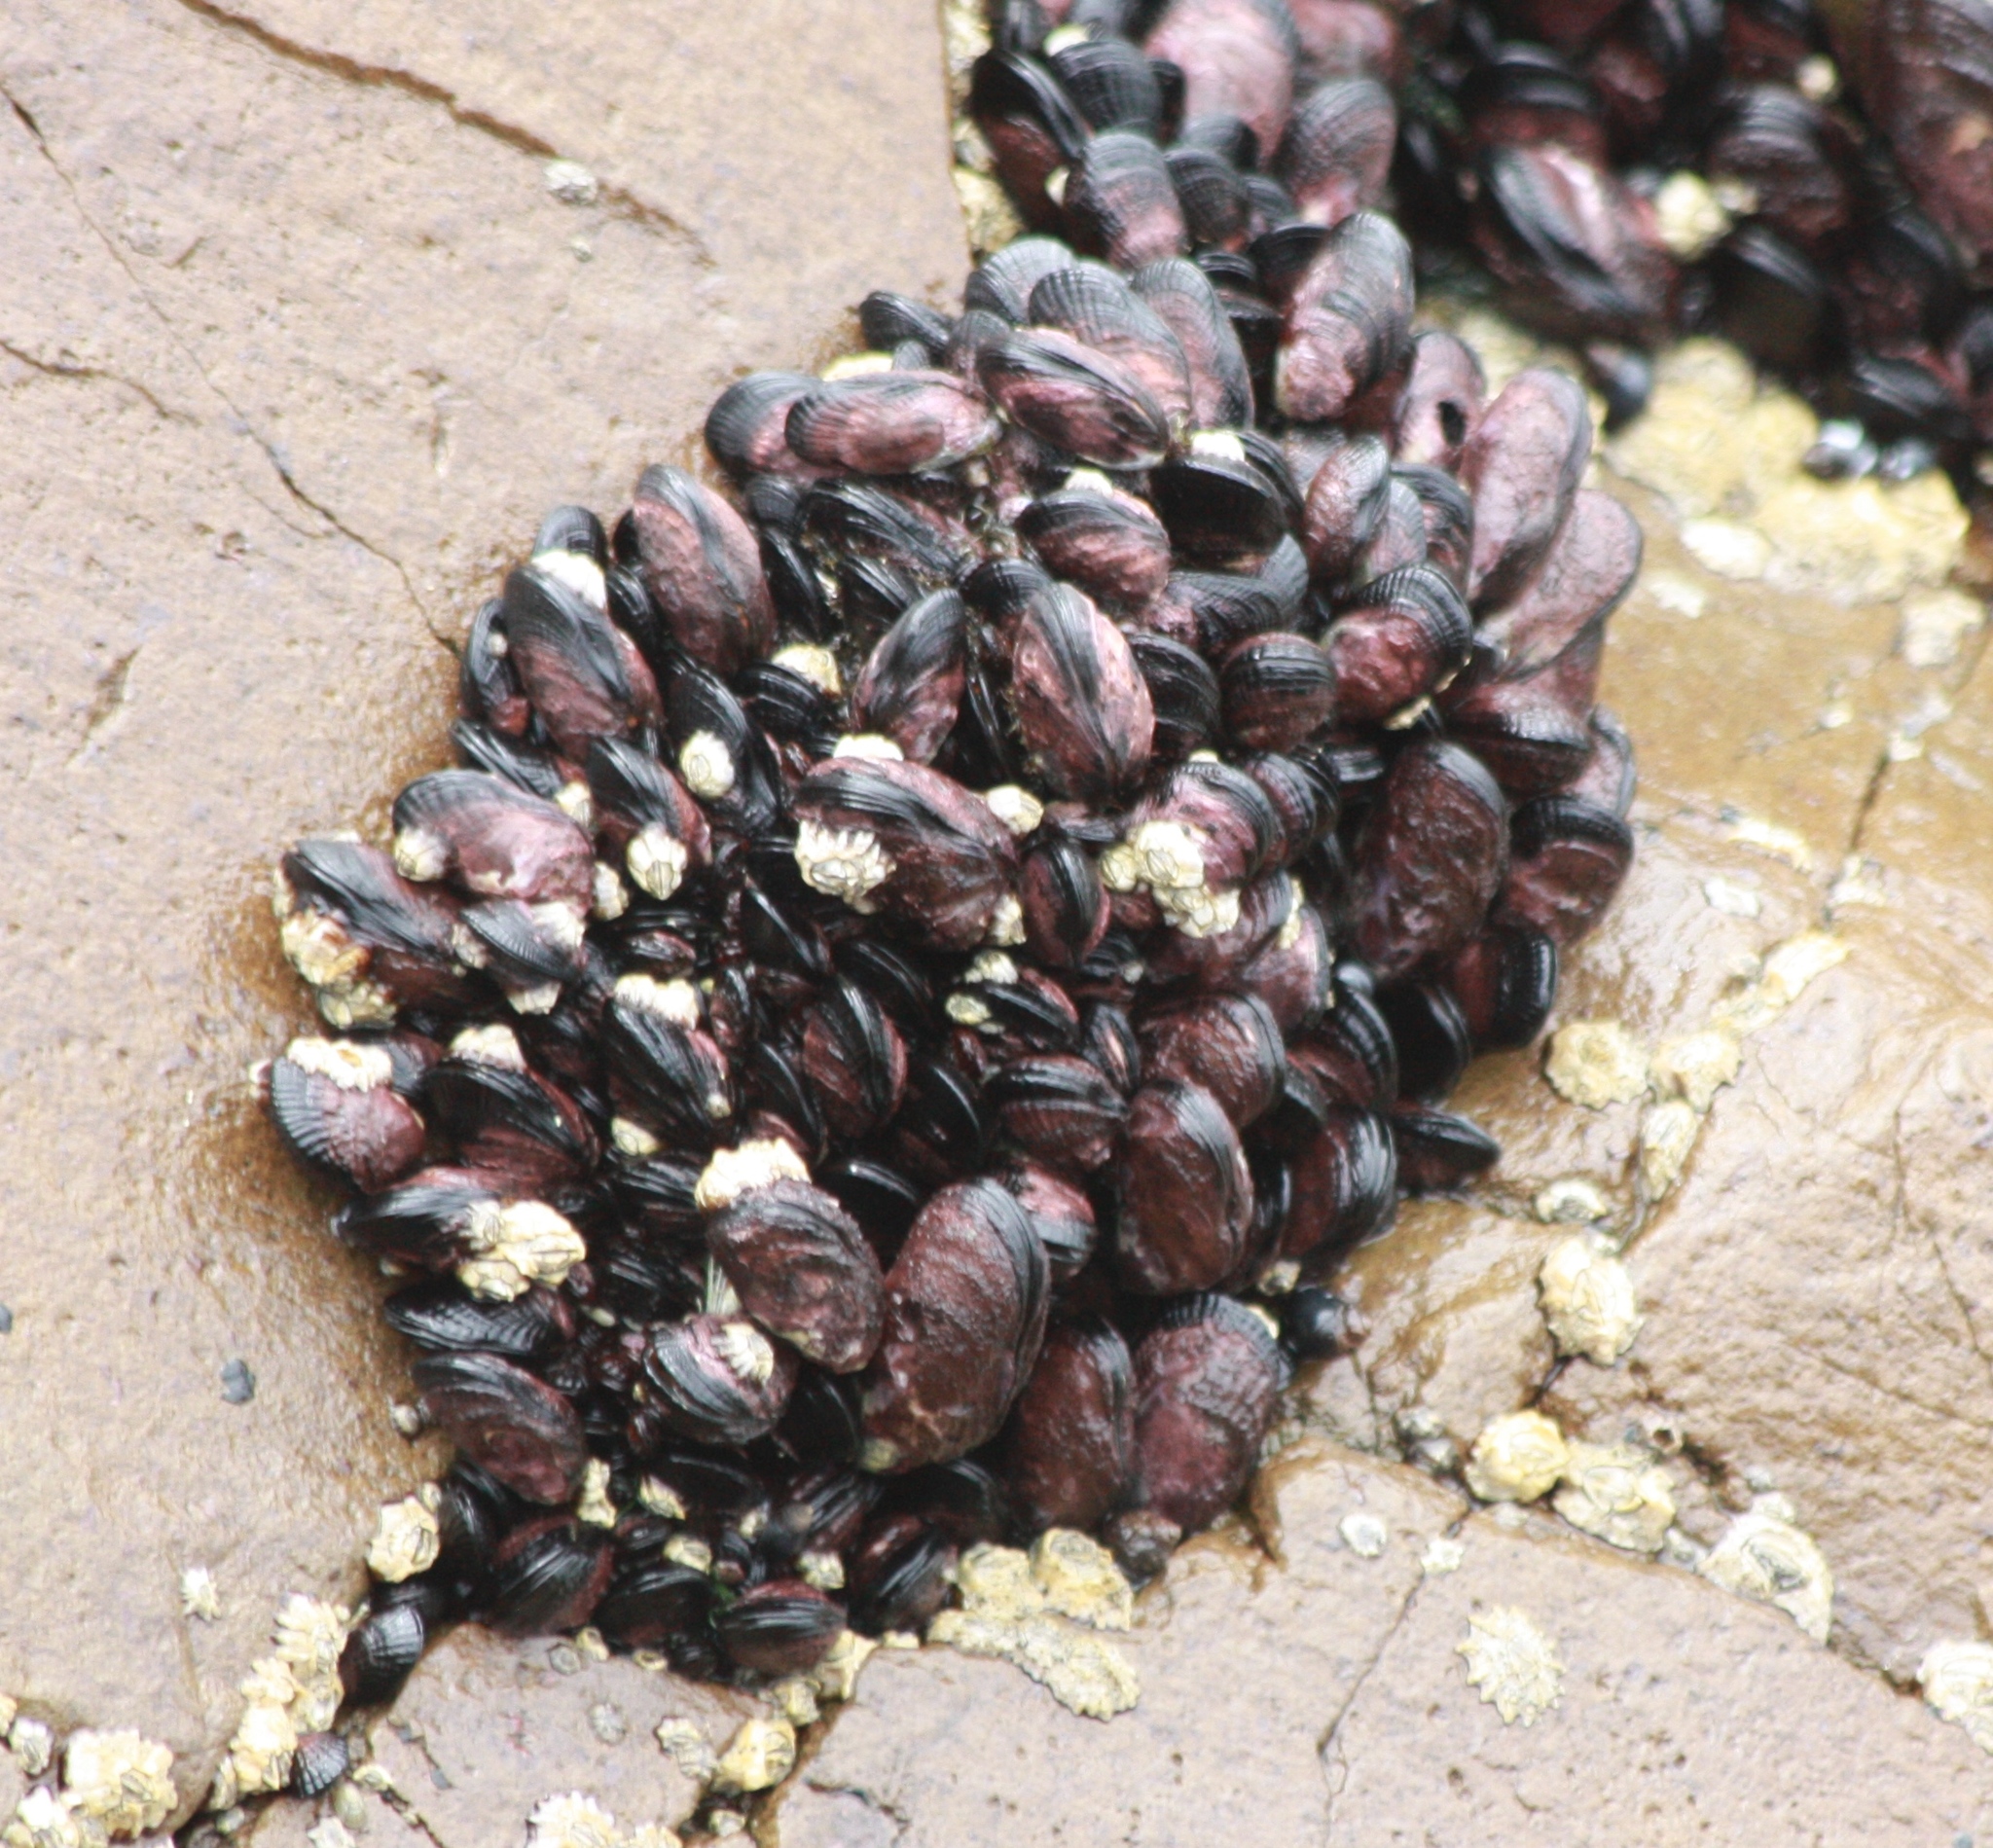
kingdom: Animalia
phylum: Mollusca
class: Bivalvia
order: Mytilida
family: Mytilidae
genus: Perumytilus
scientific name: Perumytilus purpuratus
